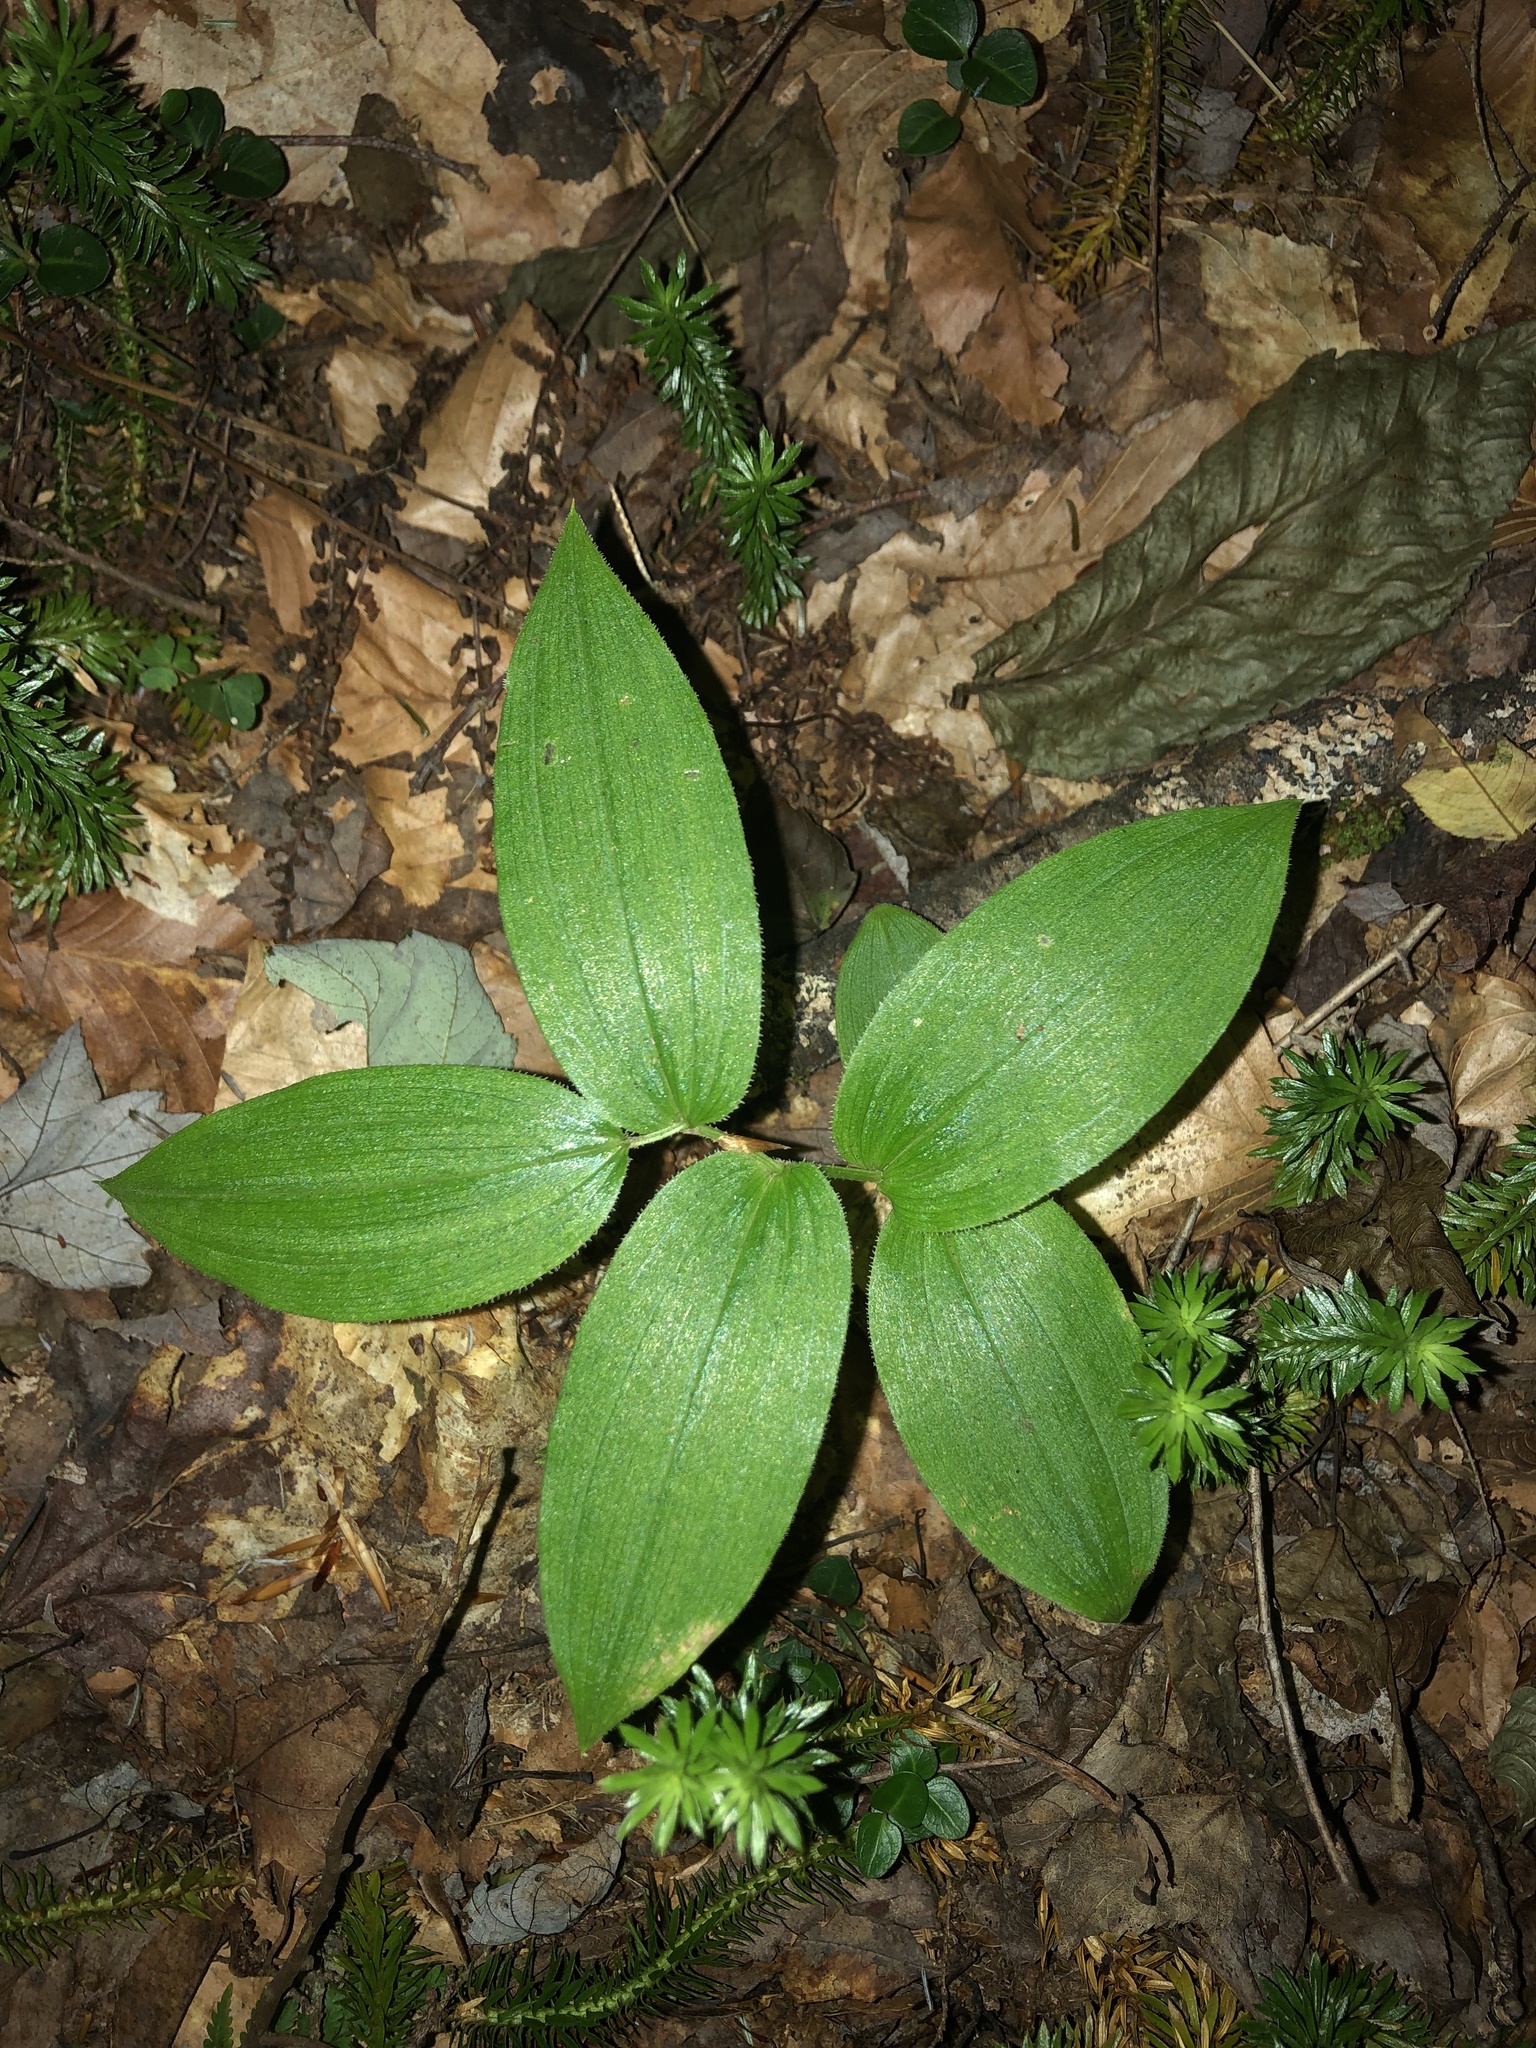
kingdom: Plantae
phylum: Tracheophyta
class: Liliopsida
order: Liliales
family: Liliaceae
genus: Streptopus
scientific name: Streptopus lanceolatus
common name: Rose mandarin
